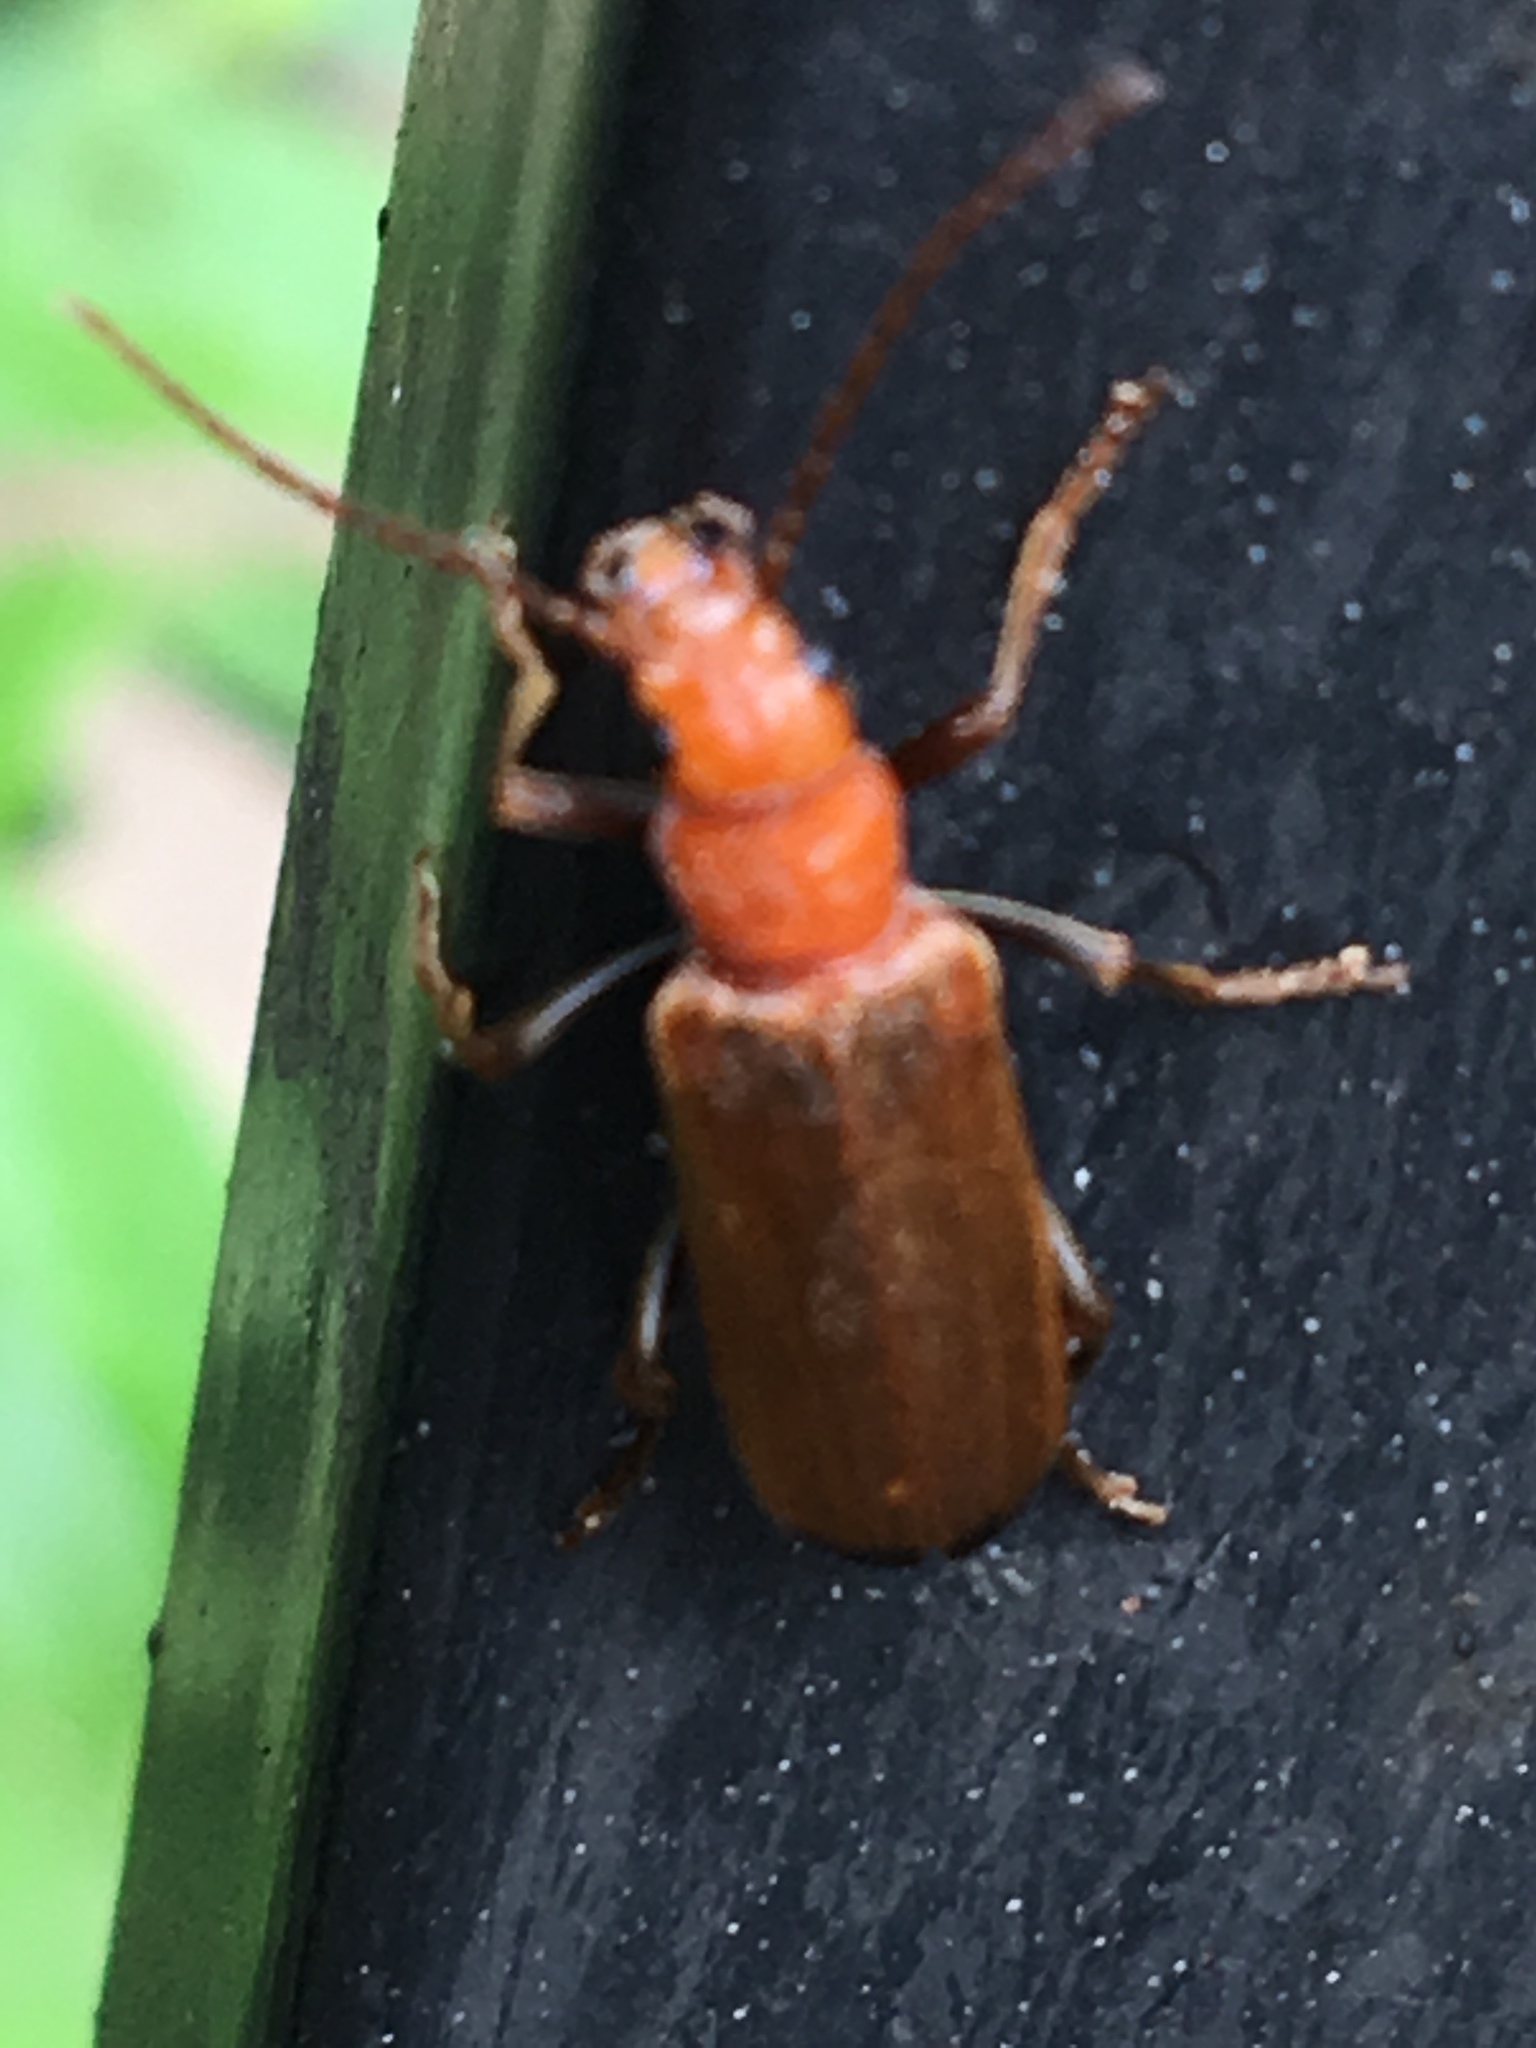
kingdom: Animalia
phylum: Arthropoda
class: Insecta
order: Coleoptera
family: Oedemeridae
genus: Nacerdes
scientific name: Nacerdes melanura
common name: Wharf borer
